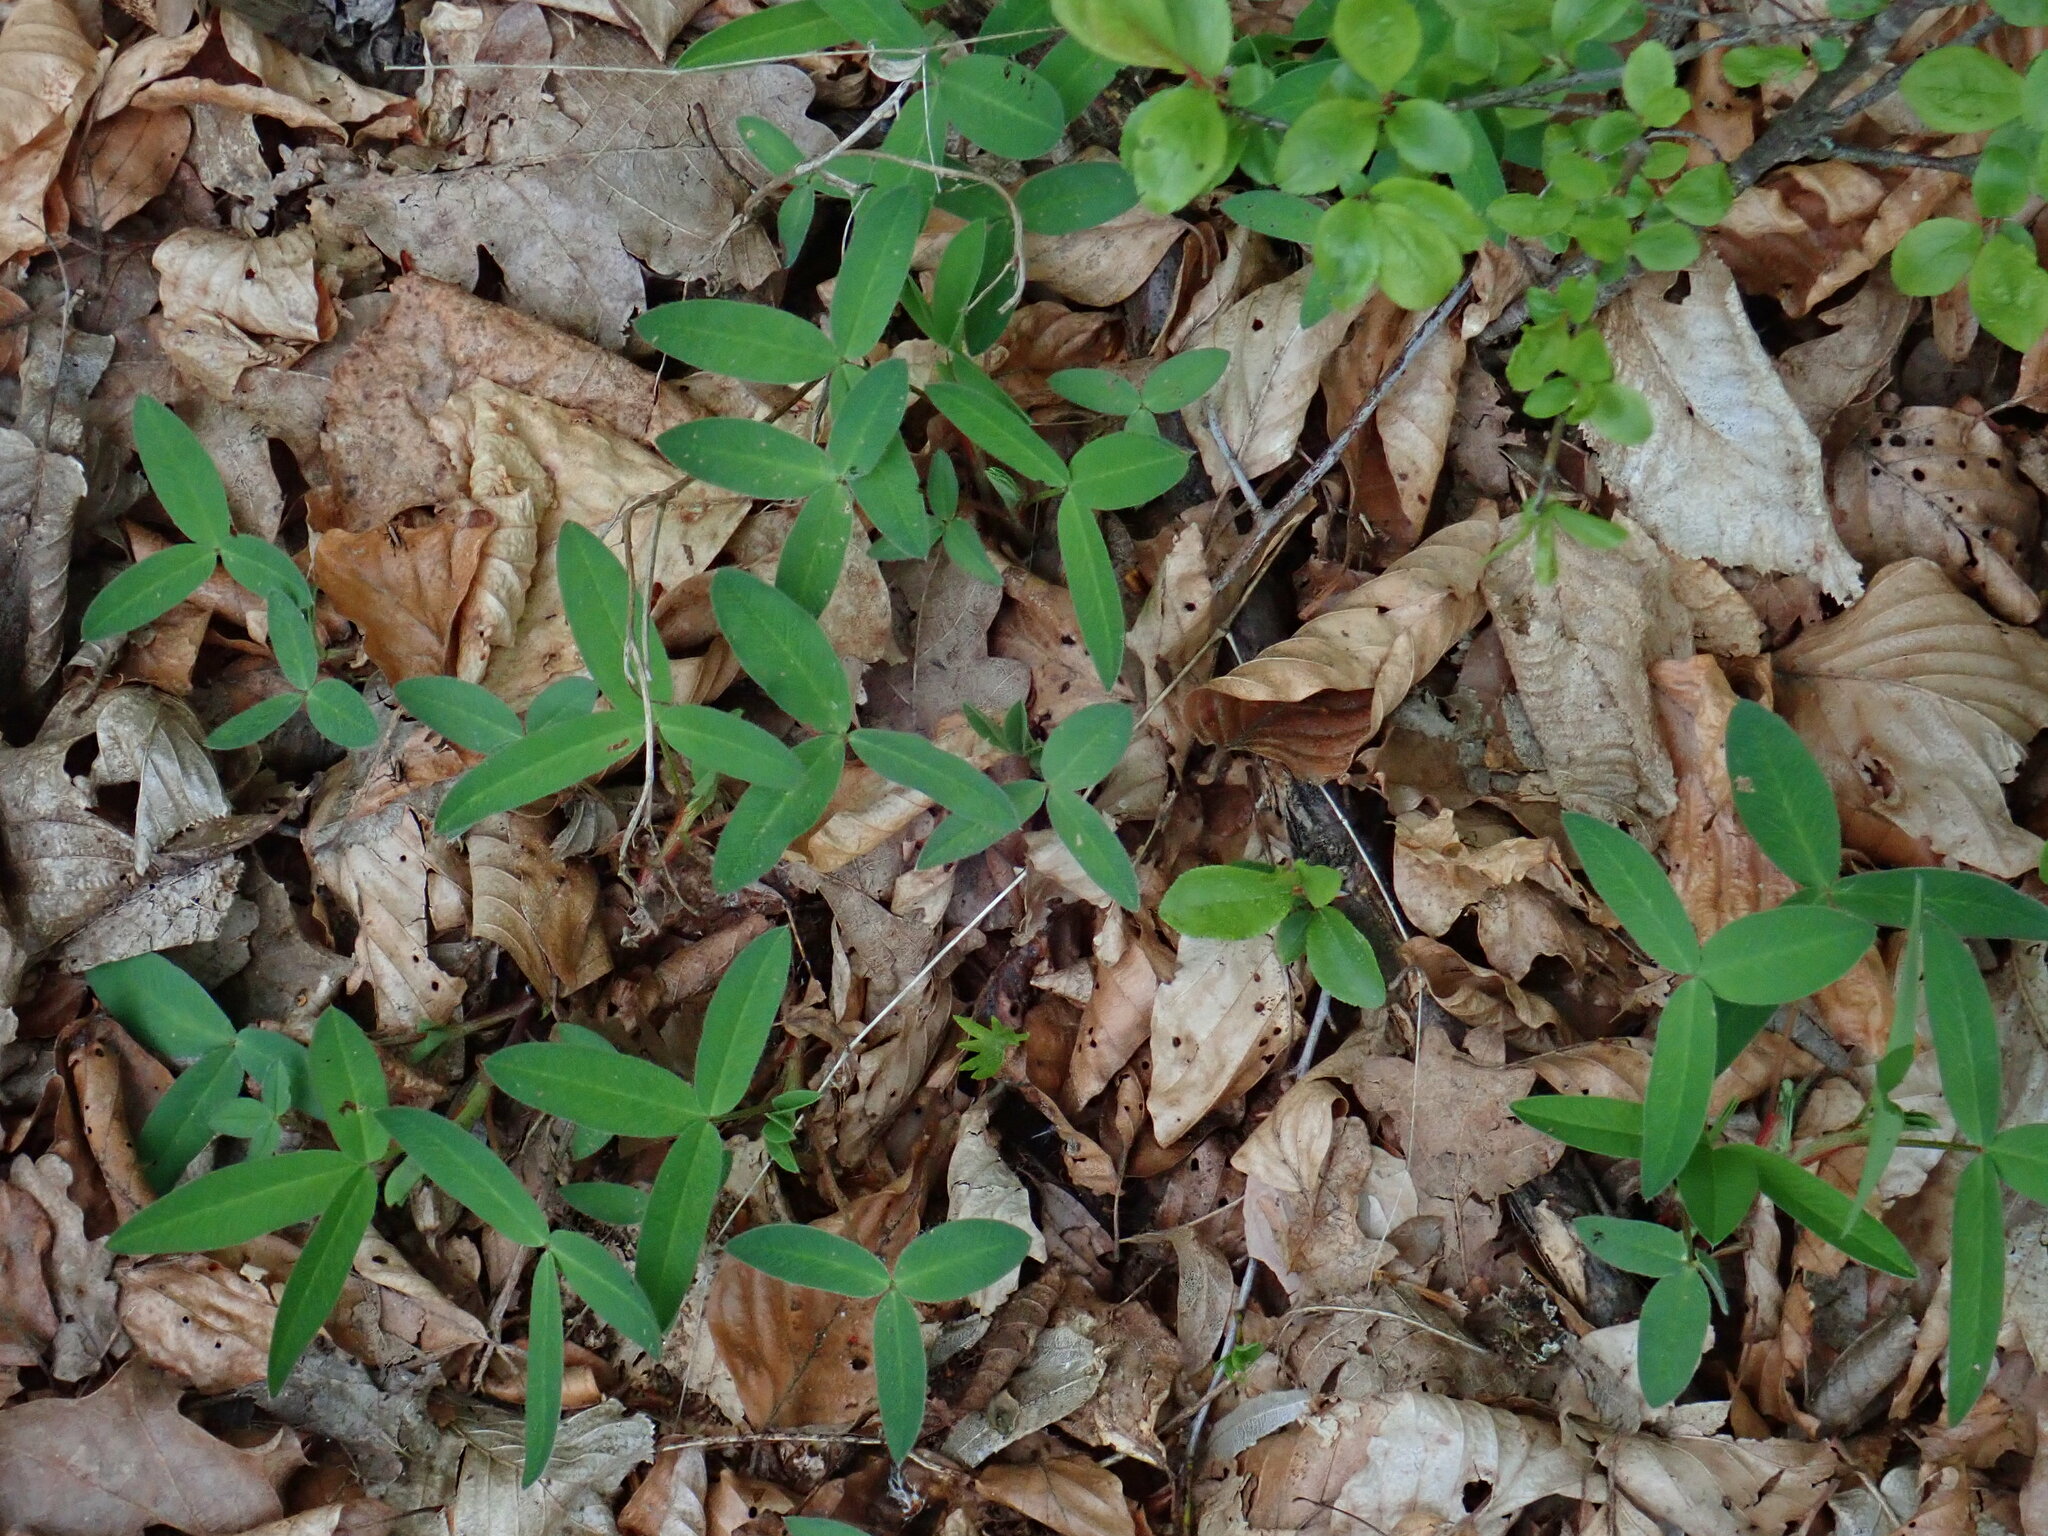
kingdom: Plantae
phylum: Tracheophyta
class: Magnoliopsida
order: Fabales
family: Fabaceae
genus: Trifolium
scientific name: Trifolium medium
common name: Zigzag clover
